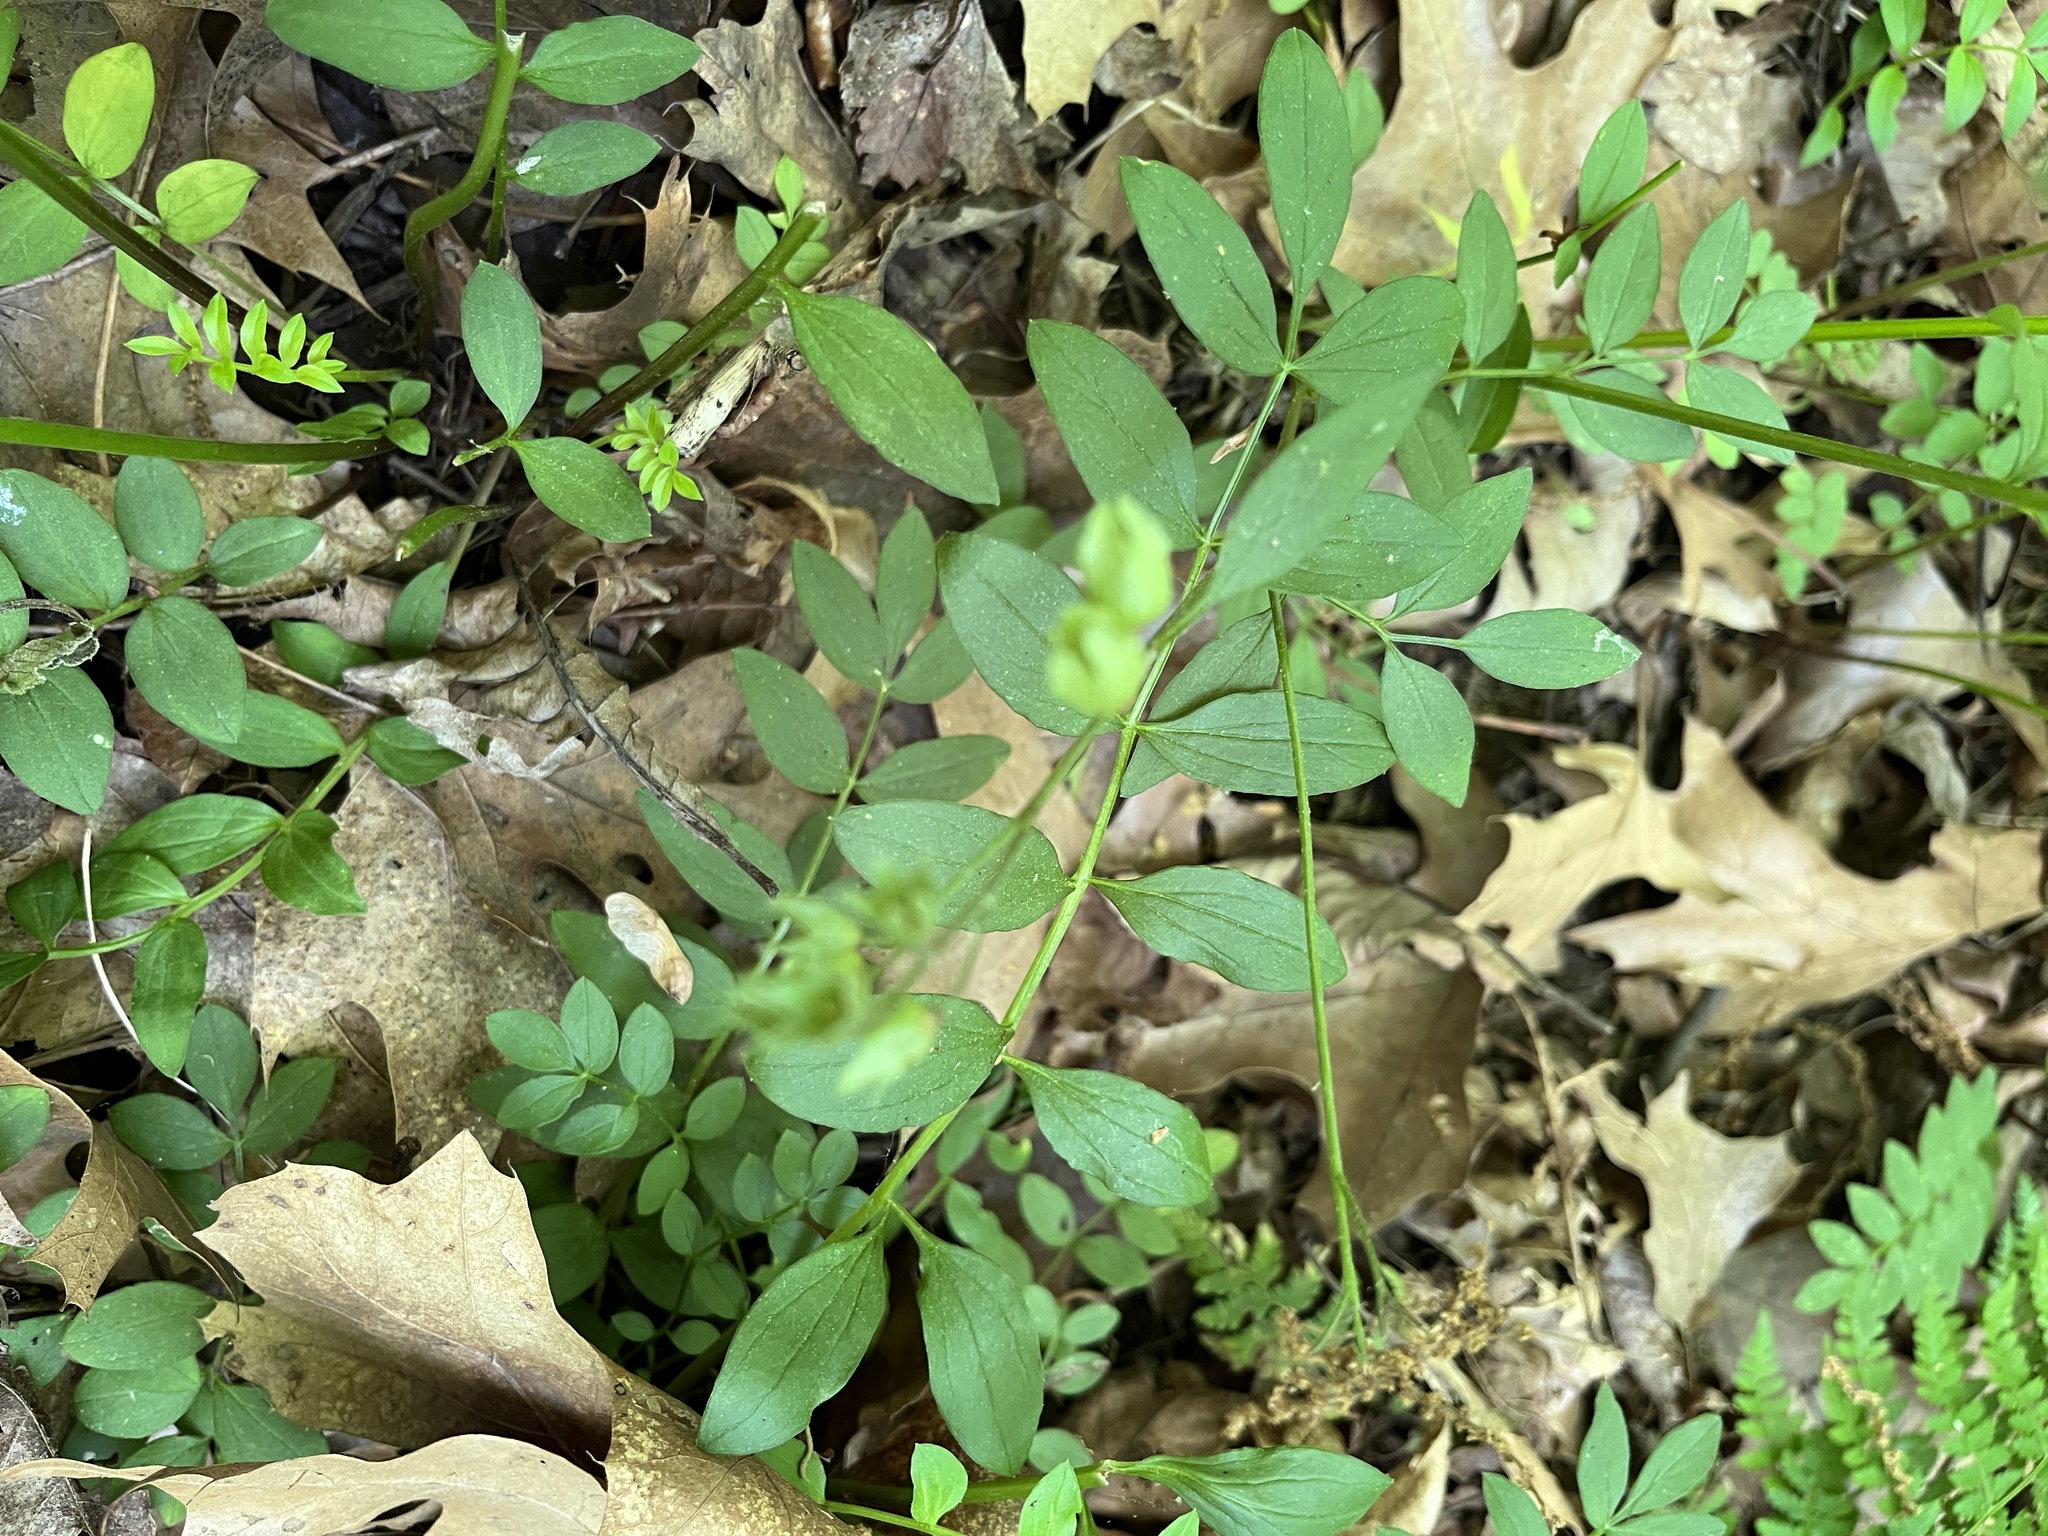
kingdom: Plantae
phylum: Tracheophyta
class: Magnoliopsida
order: Ericales
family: Polemoniaceae
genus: Polemonium
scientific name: Polemonium reptans
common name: Creeping jacob's-ladder
